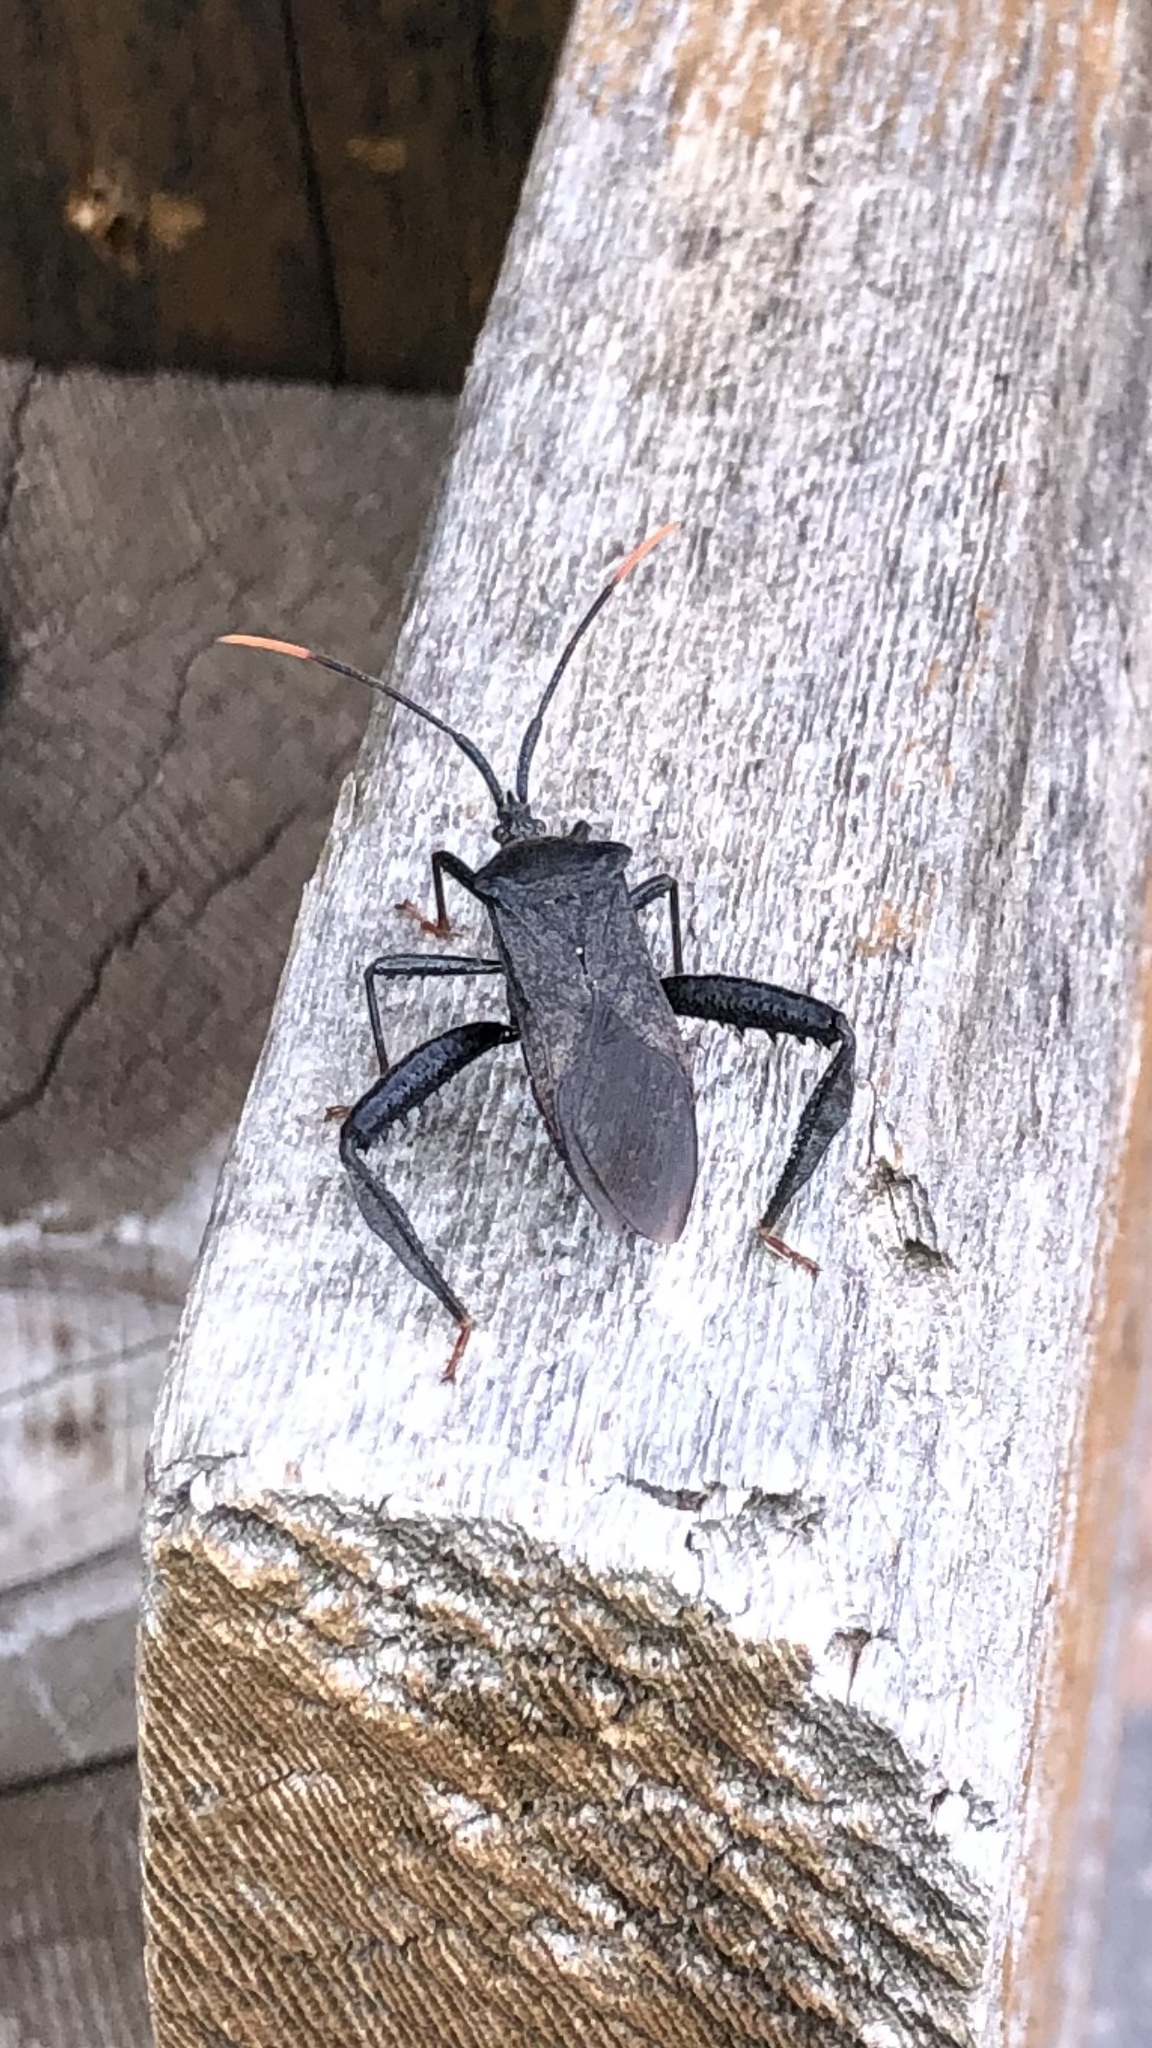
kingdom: Animalia
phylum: Arthropoda
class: Insecta
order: Hemiptera
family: Coreidae
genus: Acanthocephala
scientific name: Acanthocephala terminalis
